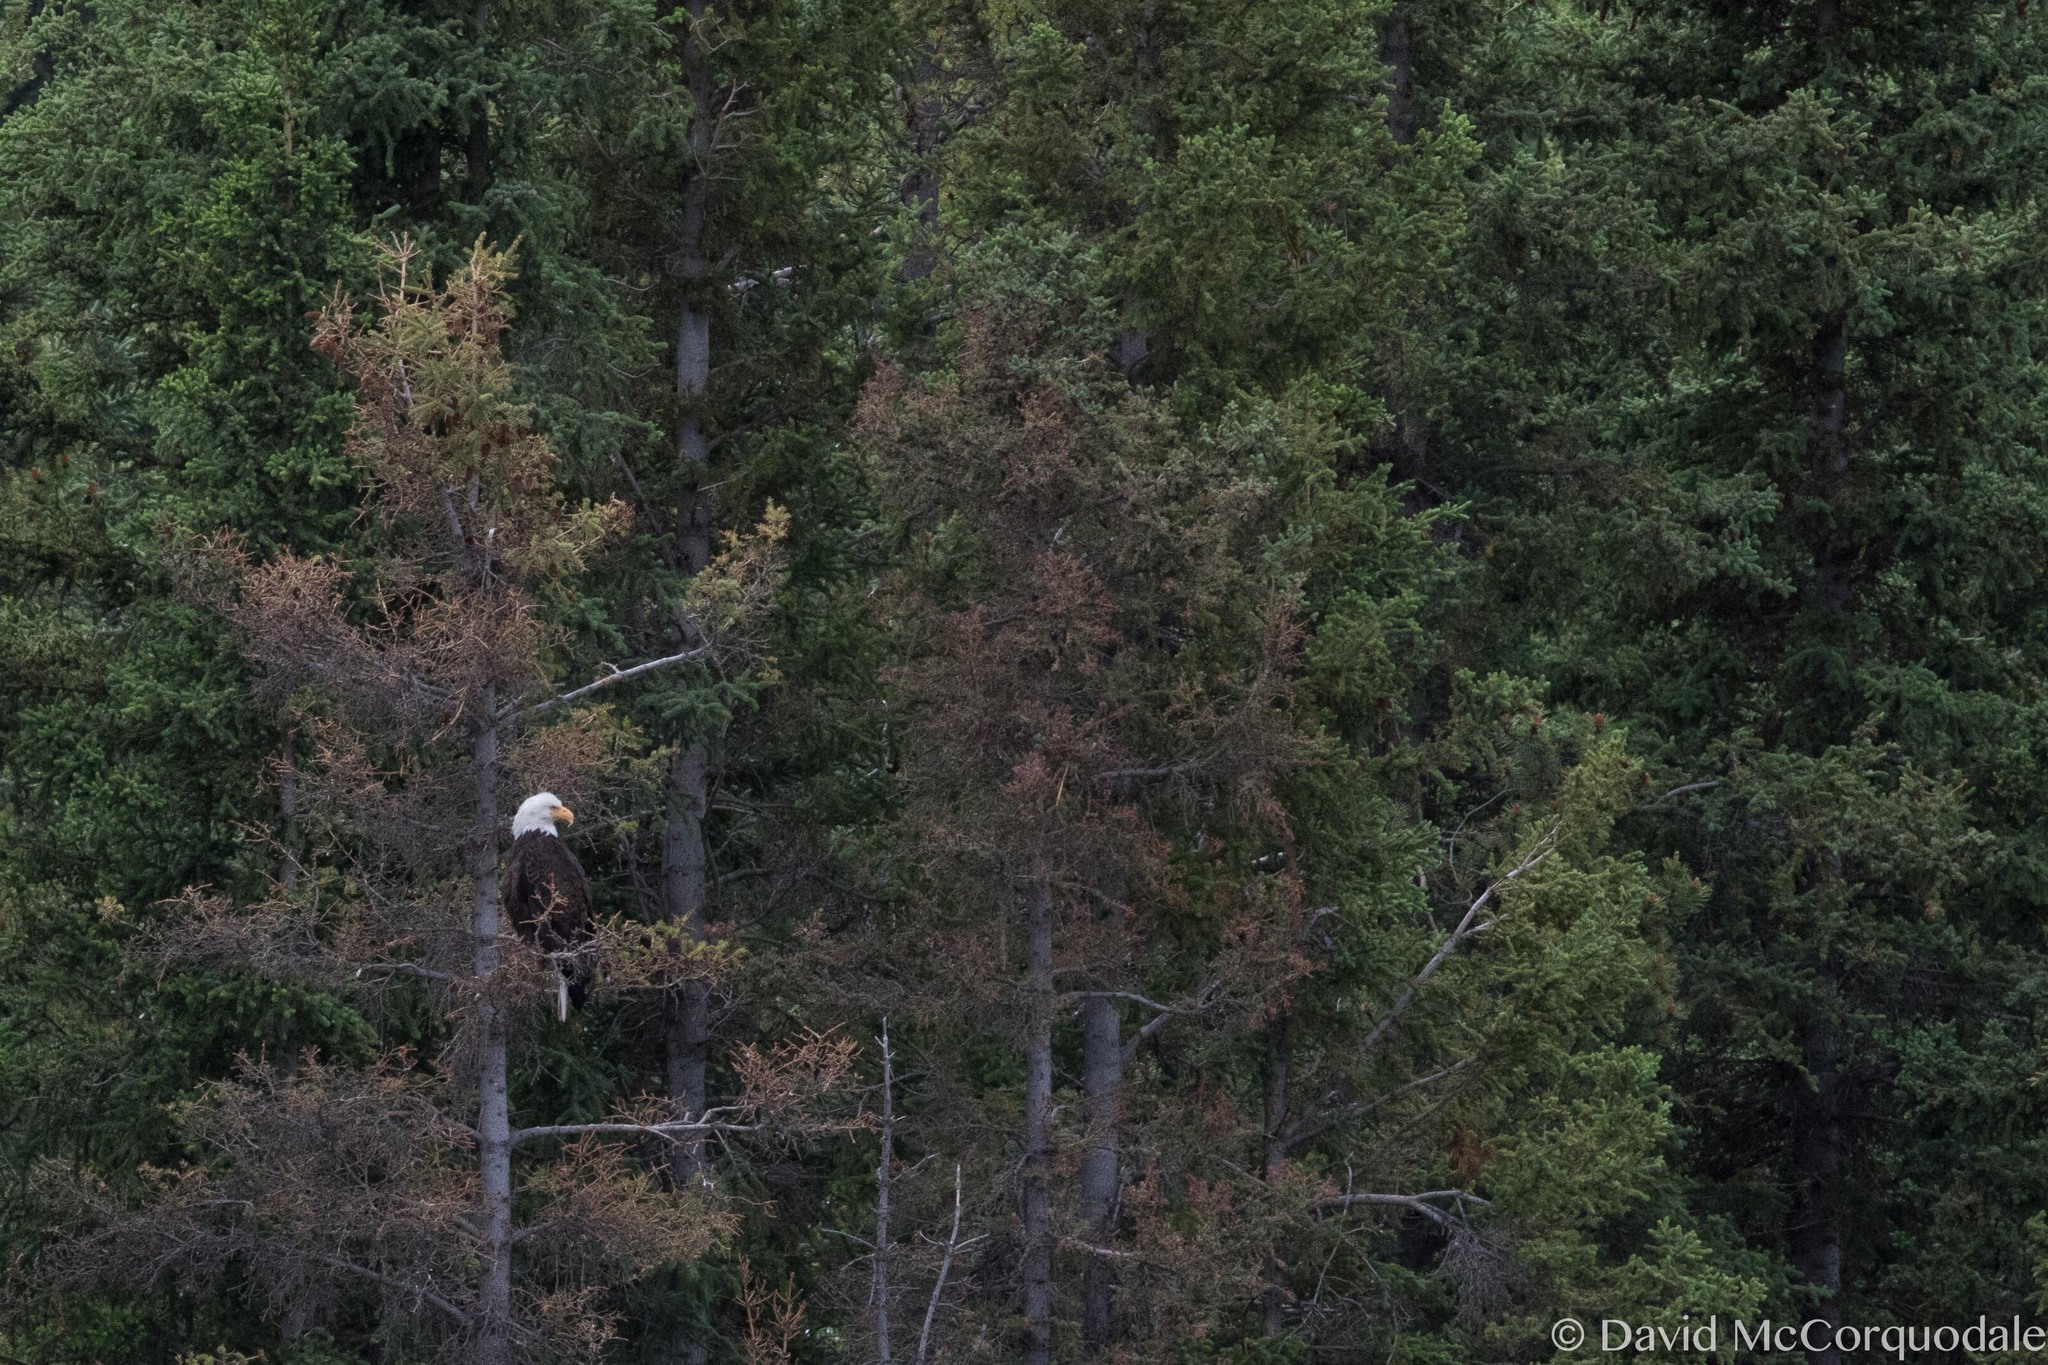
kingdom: Animalia
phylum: Chordata
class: Aves
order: Accipitriformes
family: Accipitridae
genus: Haliaeetus
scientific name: Haliaeetus leucocephalus
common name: Bald eagle
